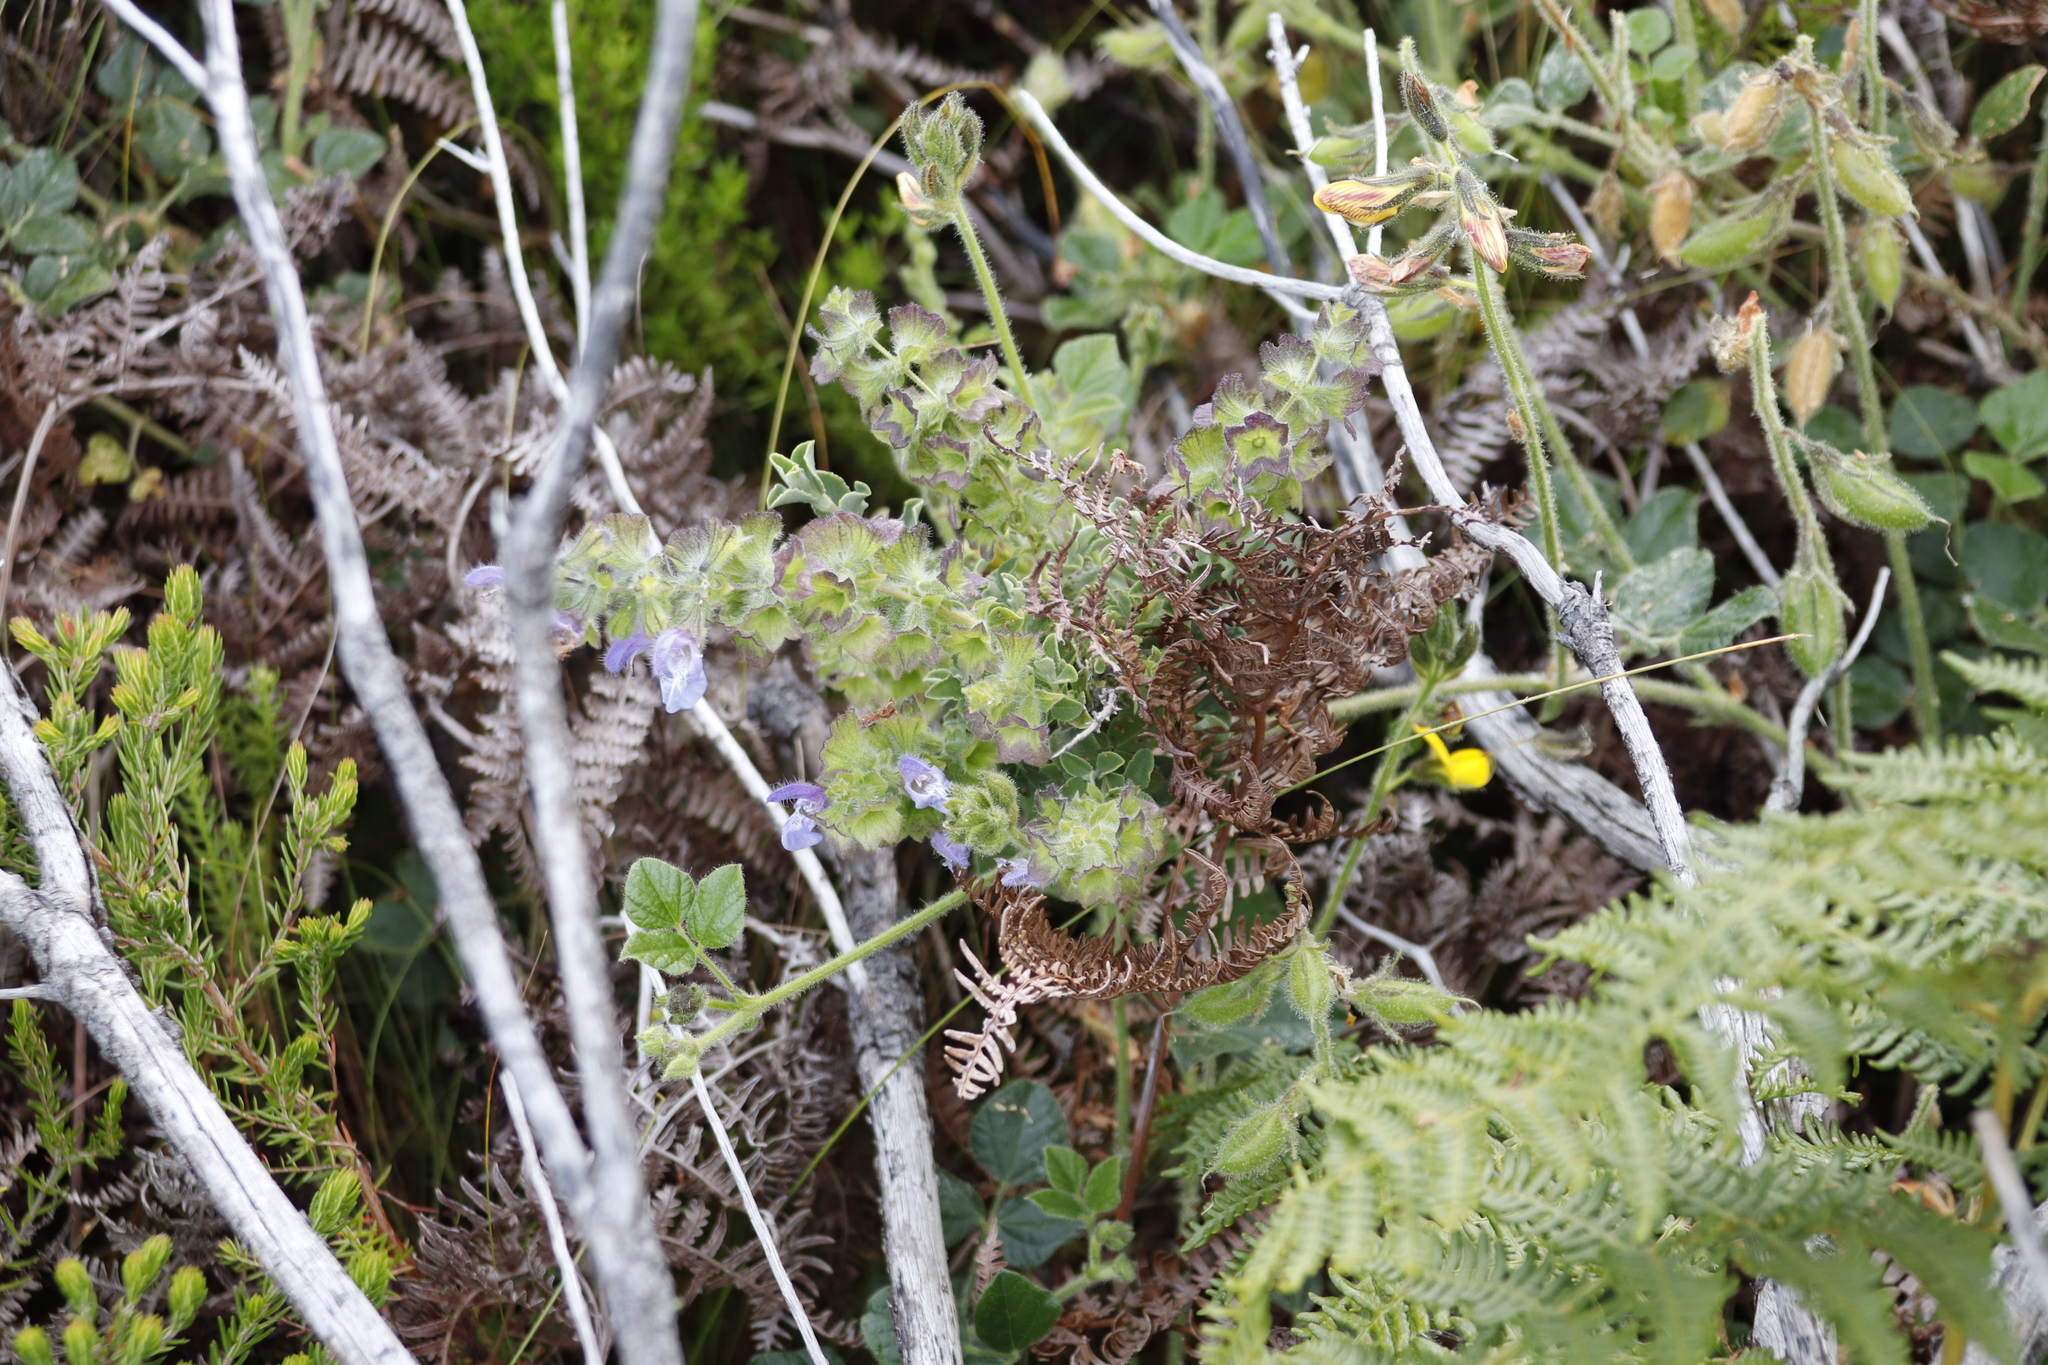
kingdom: Plantae
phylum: Tracheophyta
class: Magnoliopsida
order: Lamiales
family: Lamiaceae
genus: Salvia
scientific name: Salvia africana
